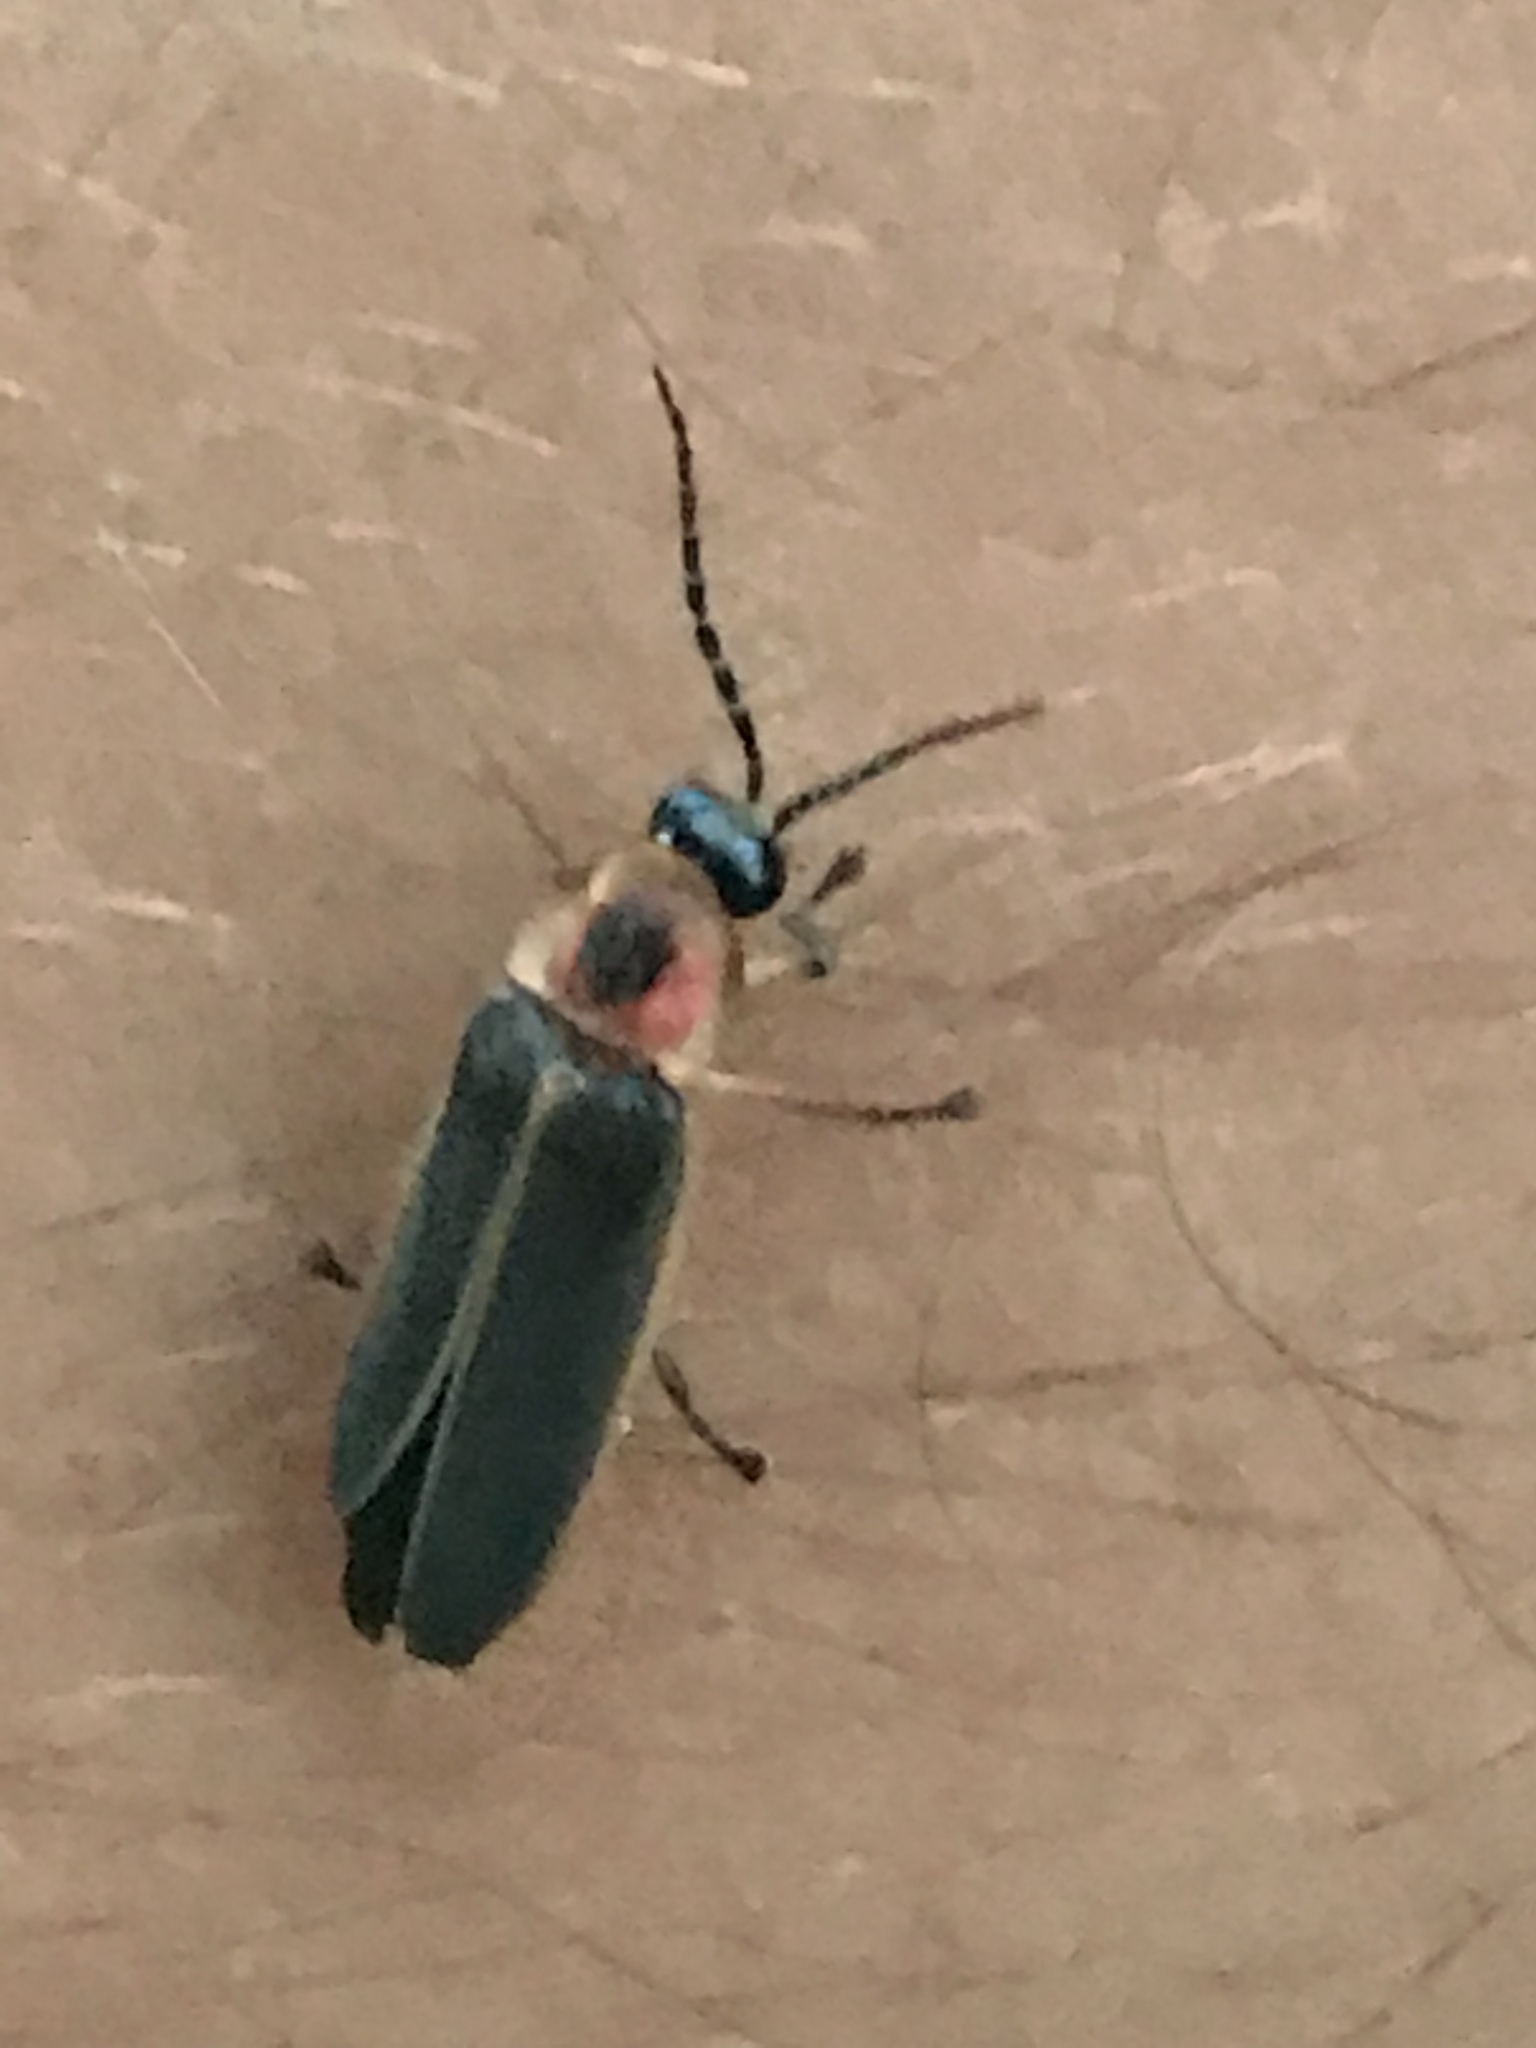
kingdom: Animalia
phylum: Arthropoda
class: Insecta
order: Coleoptera
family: Lampyridae
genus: Photinus
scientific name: Photinus pyralis
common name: Big dipper firefly
